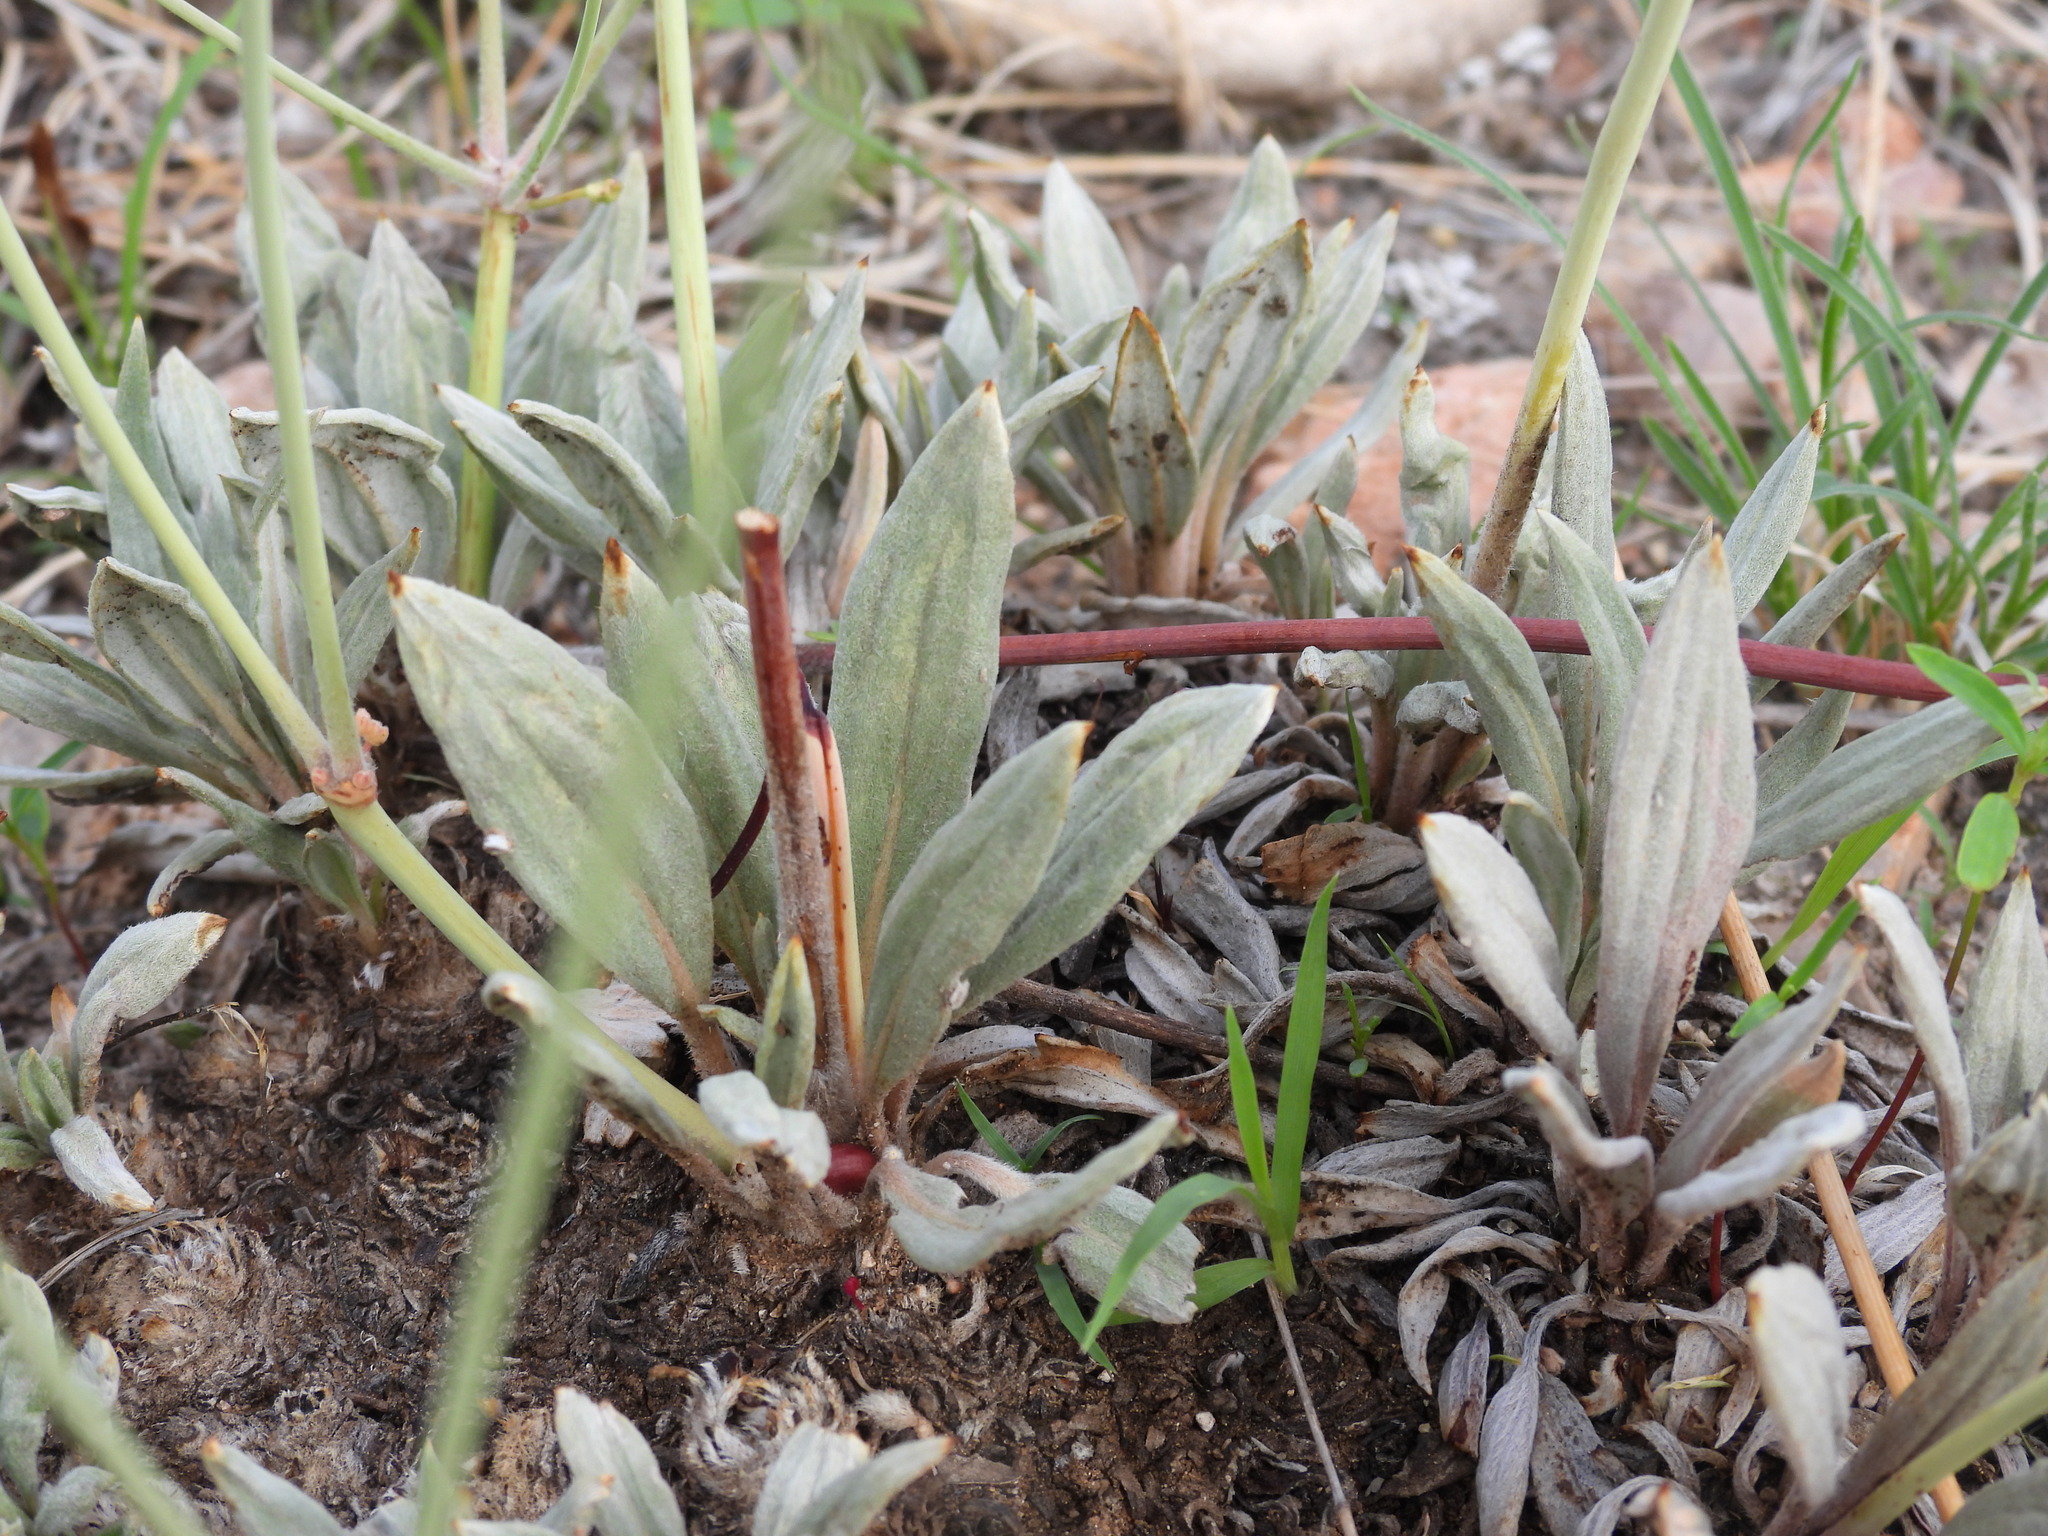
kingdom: Plantae
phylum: Tracheophyta
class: Magnoliopsida
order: Caryophyllales
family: Polygonaceae
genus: Eriogonum
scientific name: Eriogonum havardii
